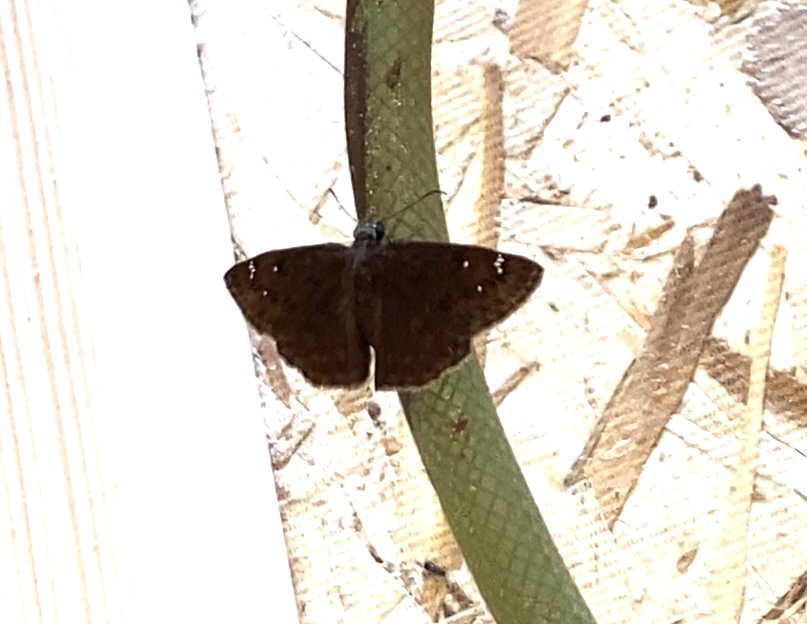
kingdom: Animalia
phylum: Arthropoda
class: Insecta
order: Lepidoptera
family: Hesperiidae
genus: Erynnis
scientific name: Erynnis horatius
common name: Horace's duskywing
